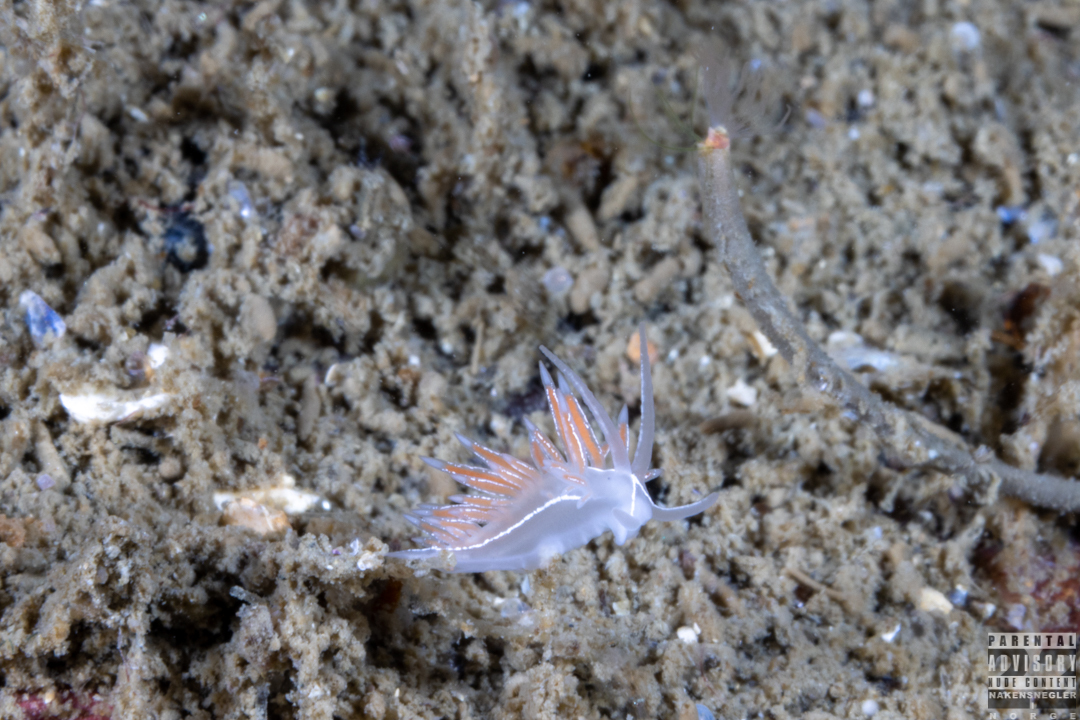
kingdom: Animalia
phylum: Mollusca
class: Gastropoda
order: Nudibranchia
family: Coryphellidae
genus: Coryphella
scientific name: Coryphella chriskaugei
